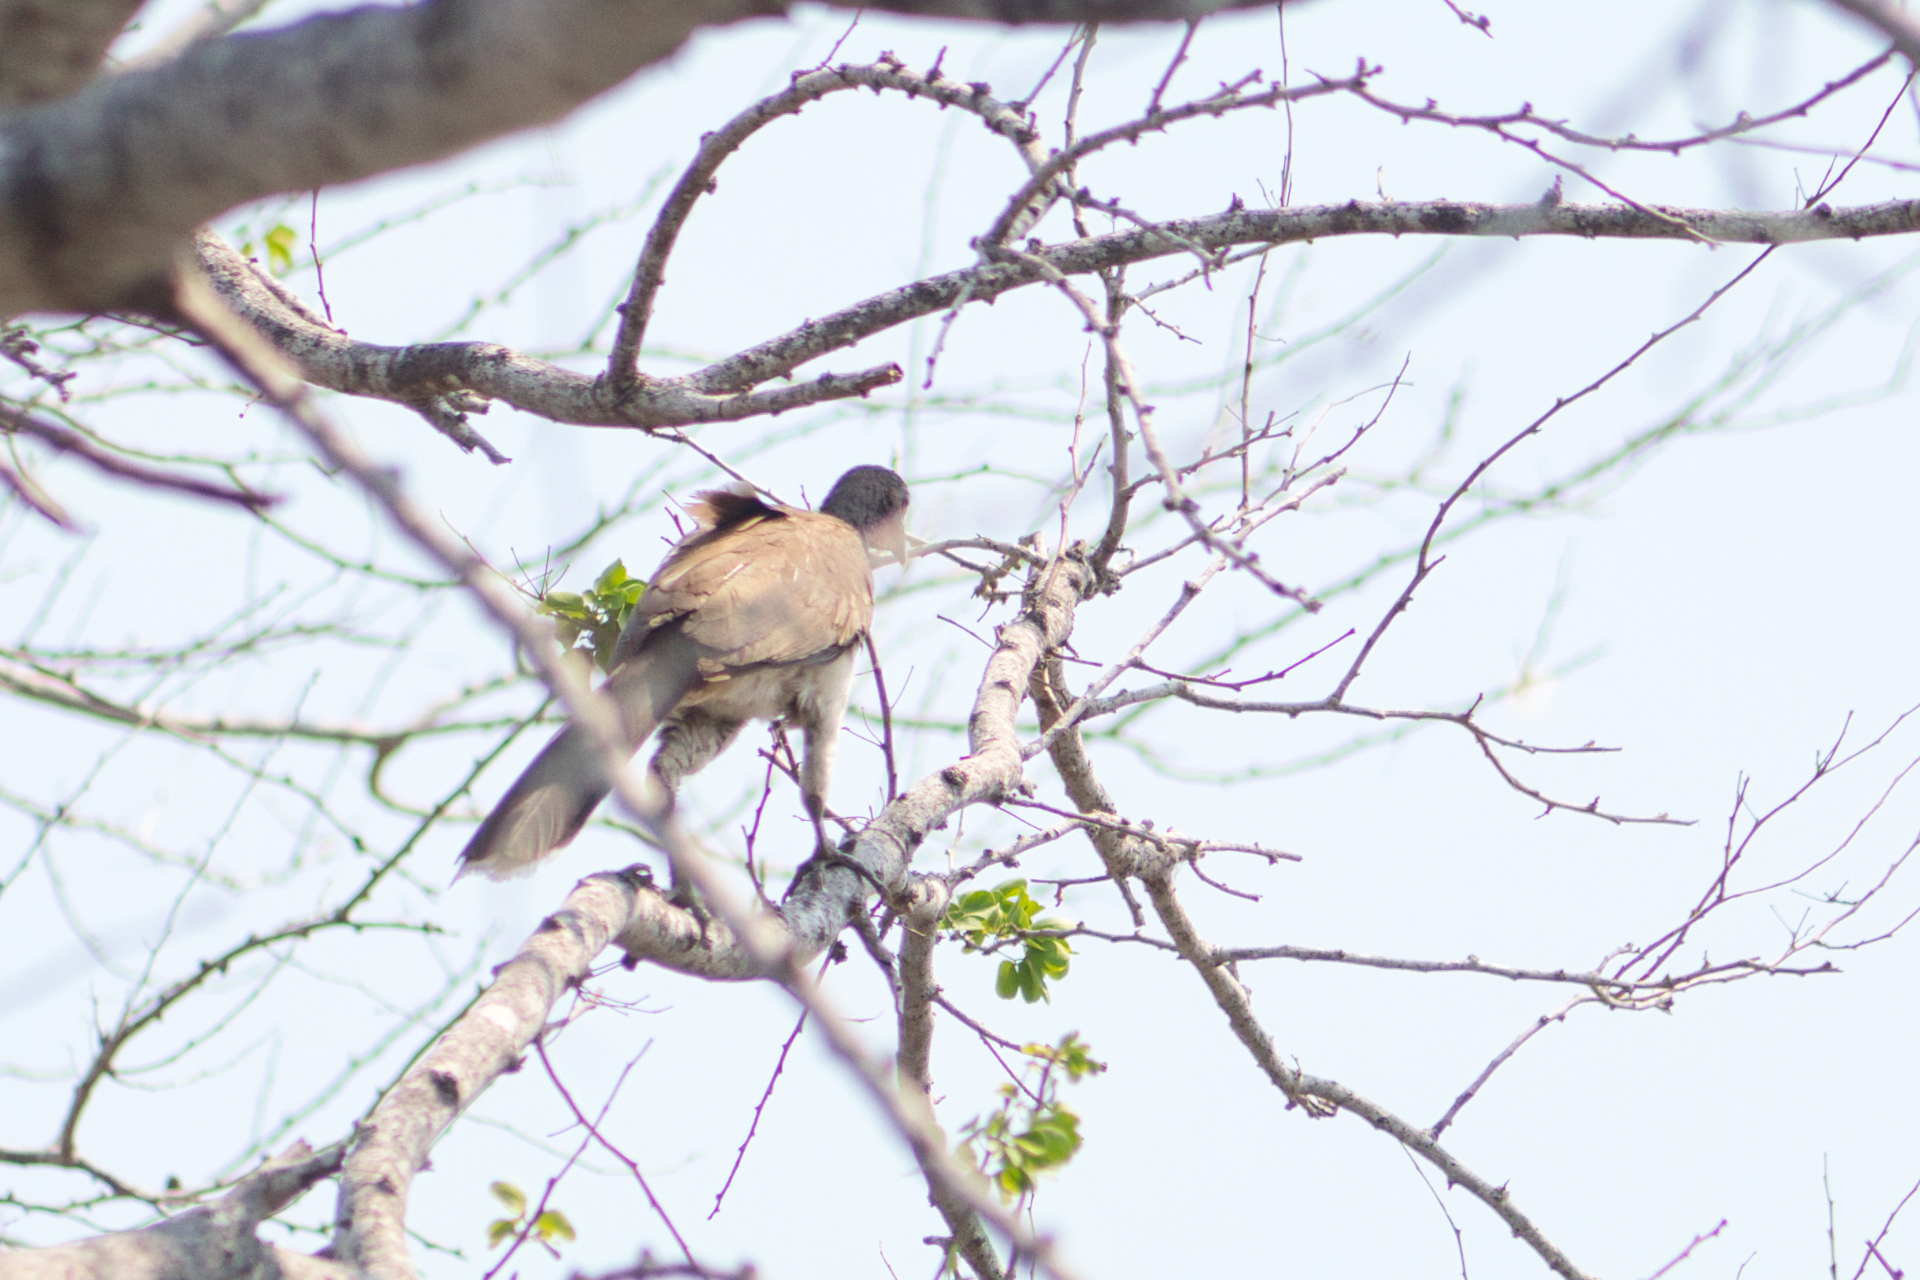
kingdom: Animalia
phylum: Chordata
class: Aves
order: Galliformes
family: Cracidae
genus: Ortalis
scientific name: Ortalis leucogastra
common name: White-bellied chachalaca
